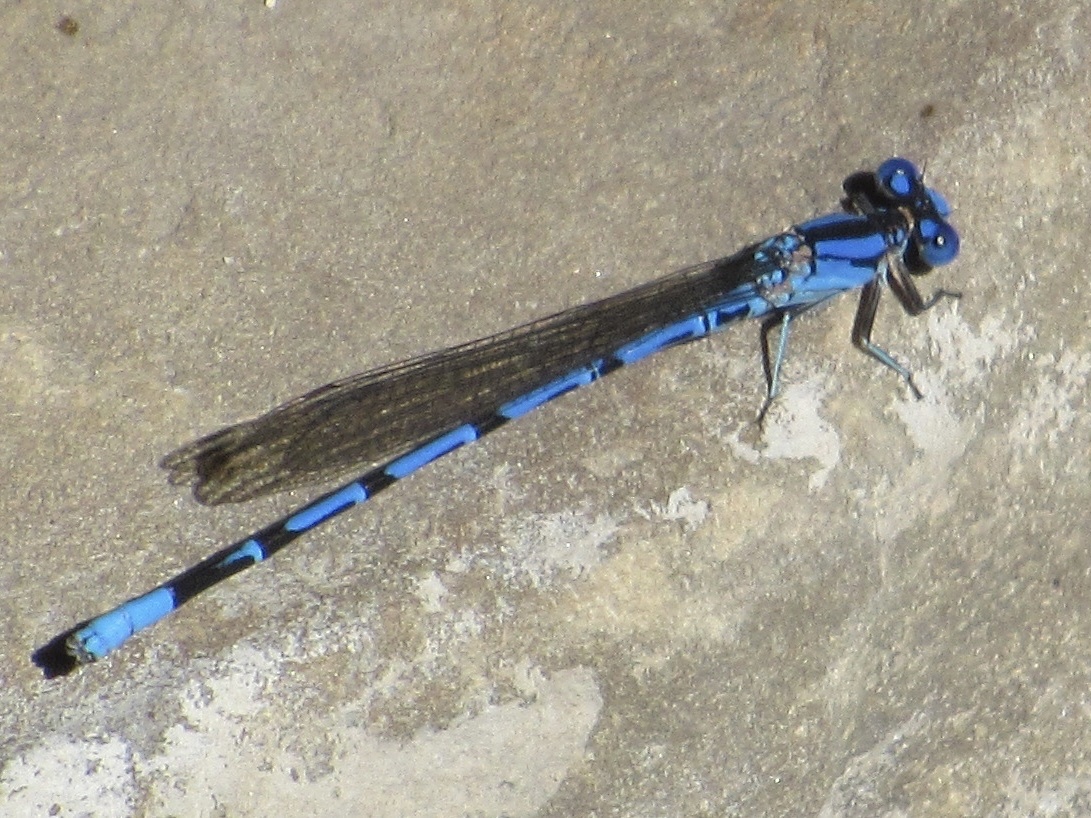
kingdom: Animalia
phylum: Arthropoda
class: Insecta
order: Odonata
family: Coenagrionidae
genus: Argia
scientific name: Argia funebris
